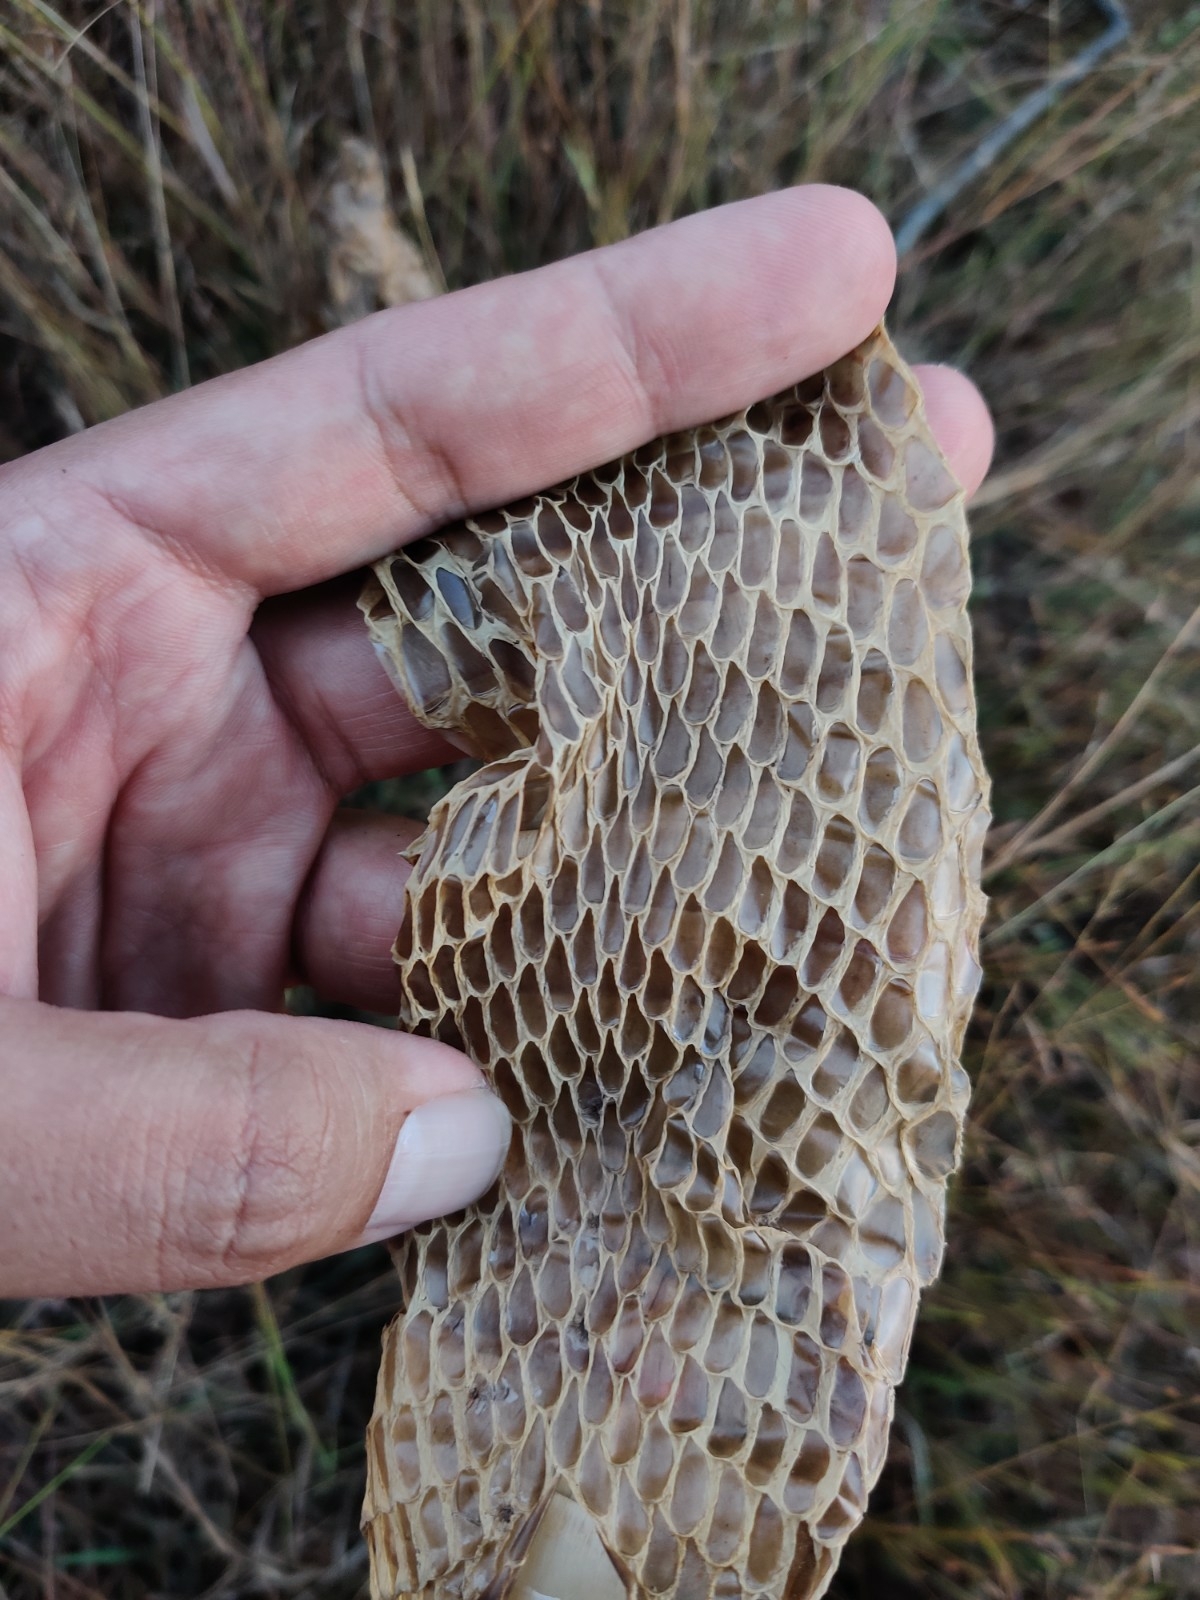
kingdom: Animalia
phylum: Chordata
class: Squamata
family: Elapidae
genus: Naja
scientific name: Naja naja
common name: Indian cobra
